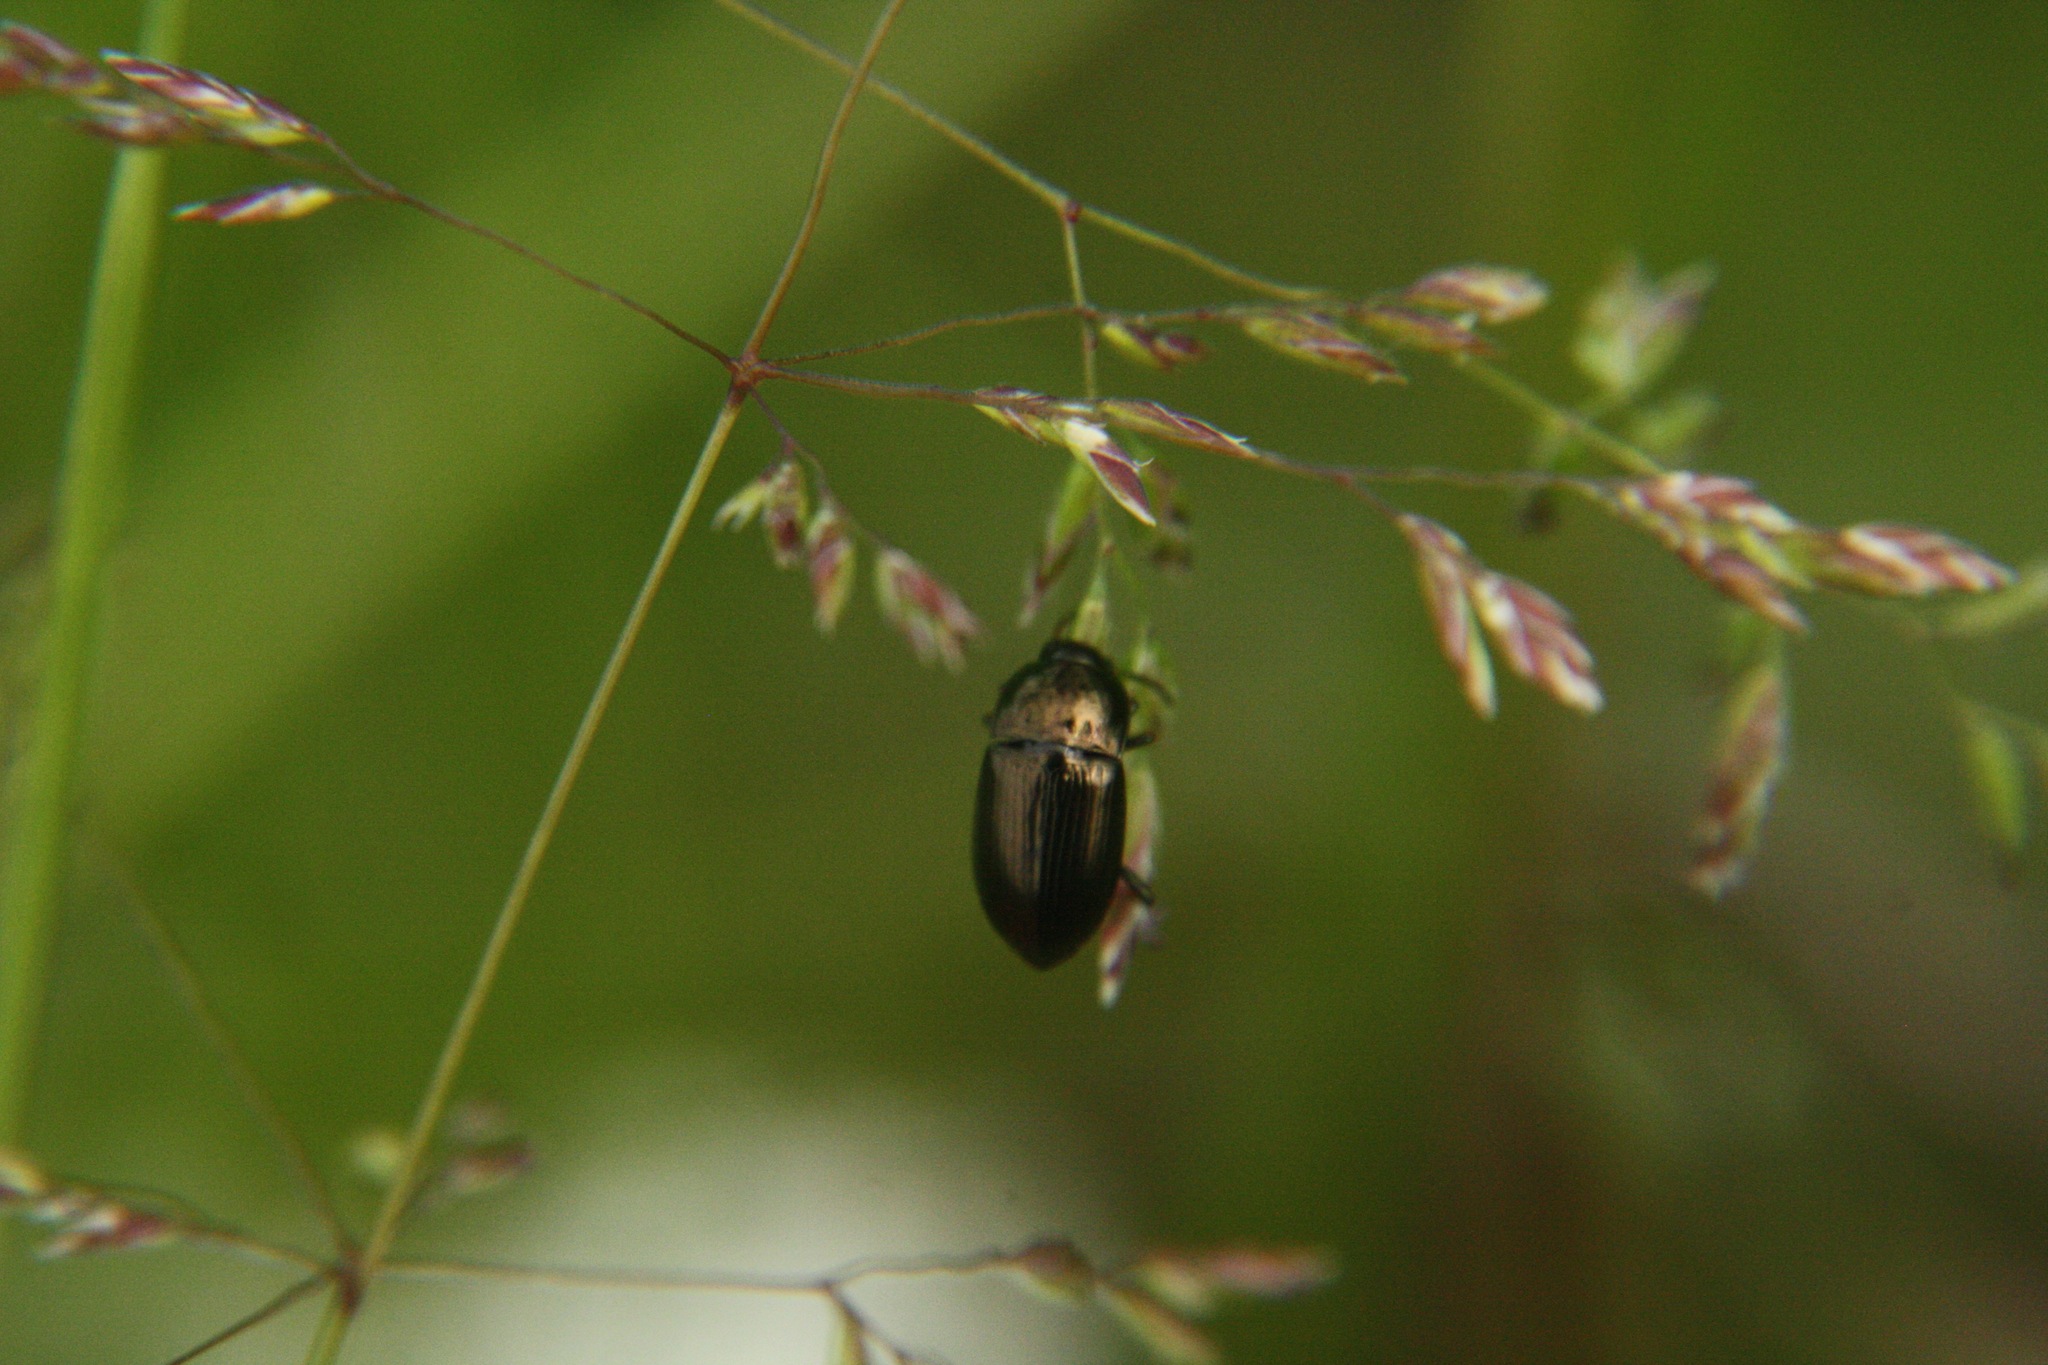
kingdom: Animalia
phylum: Arthropoda
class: Insecta
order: Coleoptera
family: Carabidae
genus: Amara
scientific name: Amara
